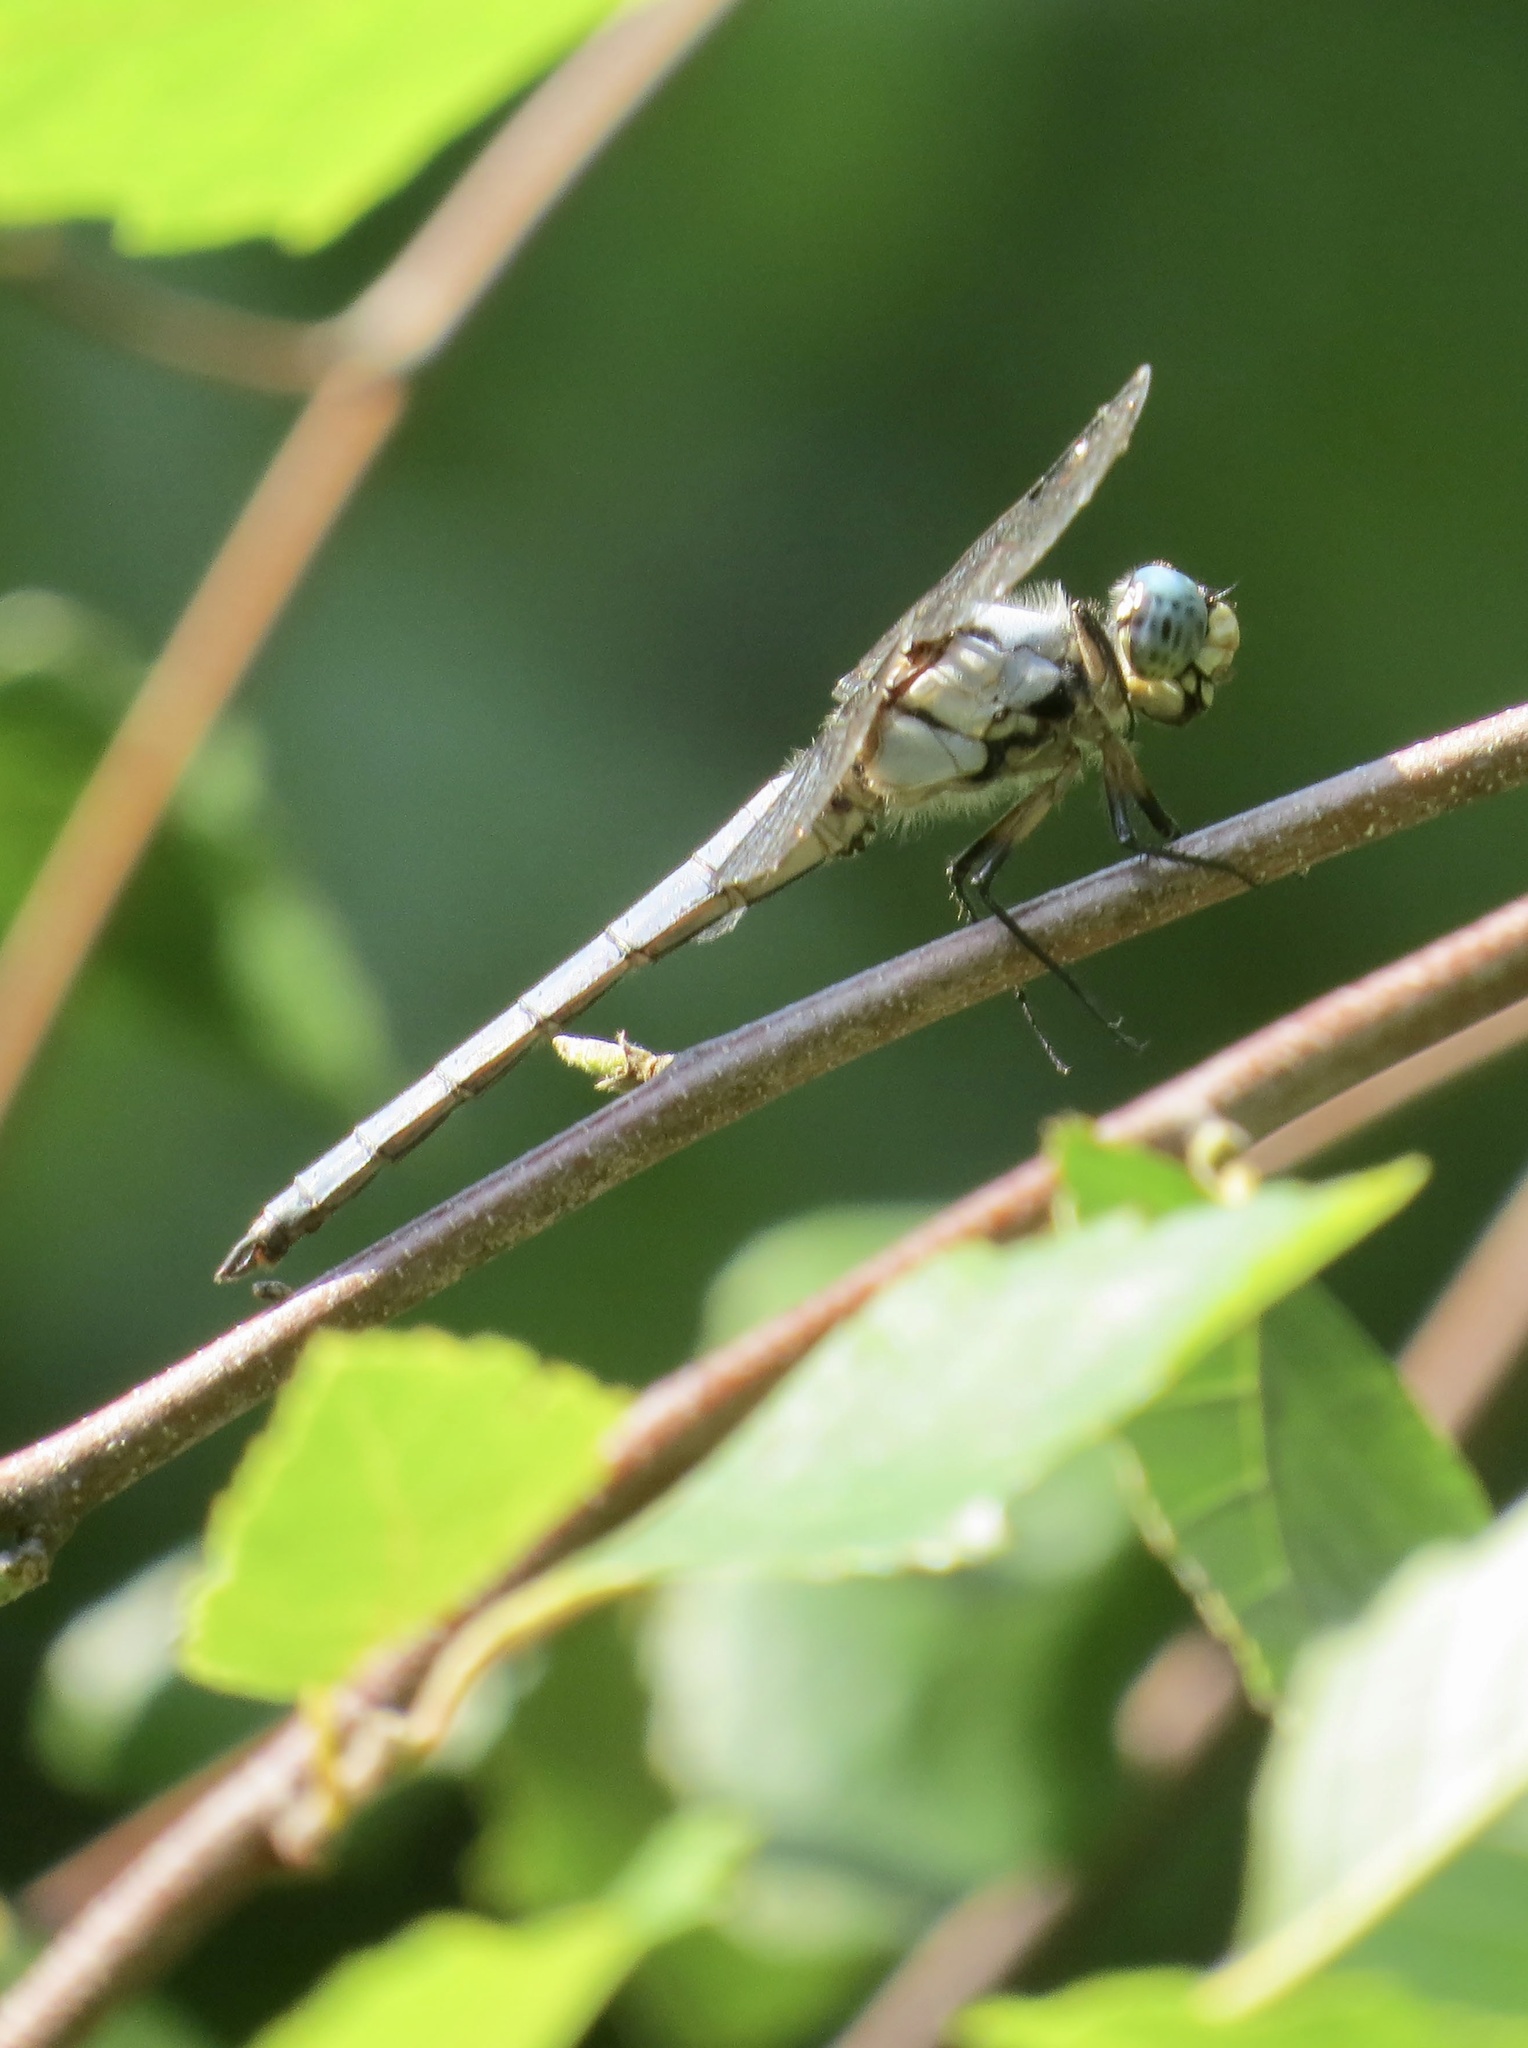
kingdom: Animalia
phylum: Arthropoda
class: Insecta
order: Odonata
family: Libellulidae
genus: Libellula
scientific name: Libellula vibrans
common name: Great blue skimmer
